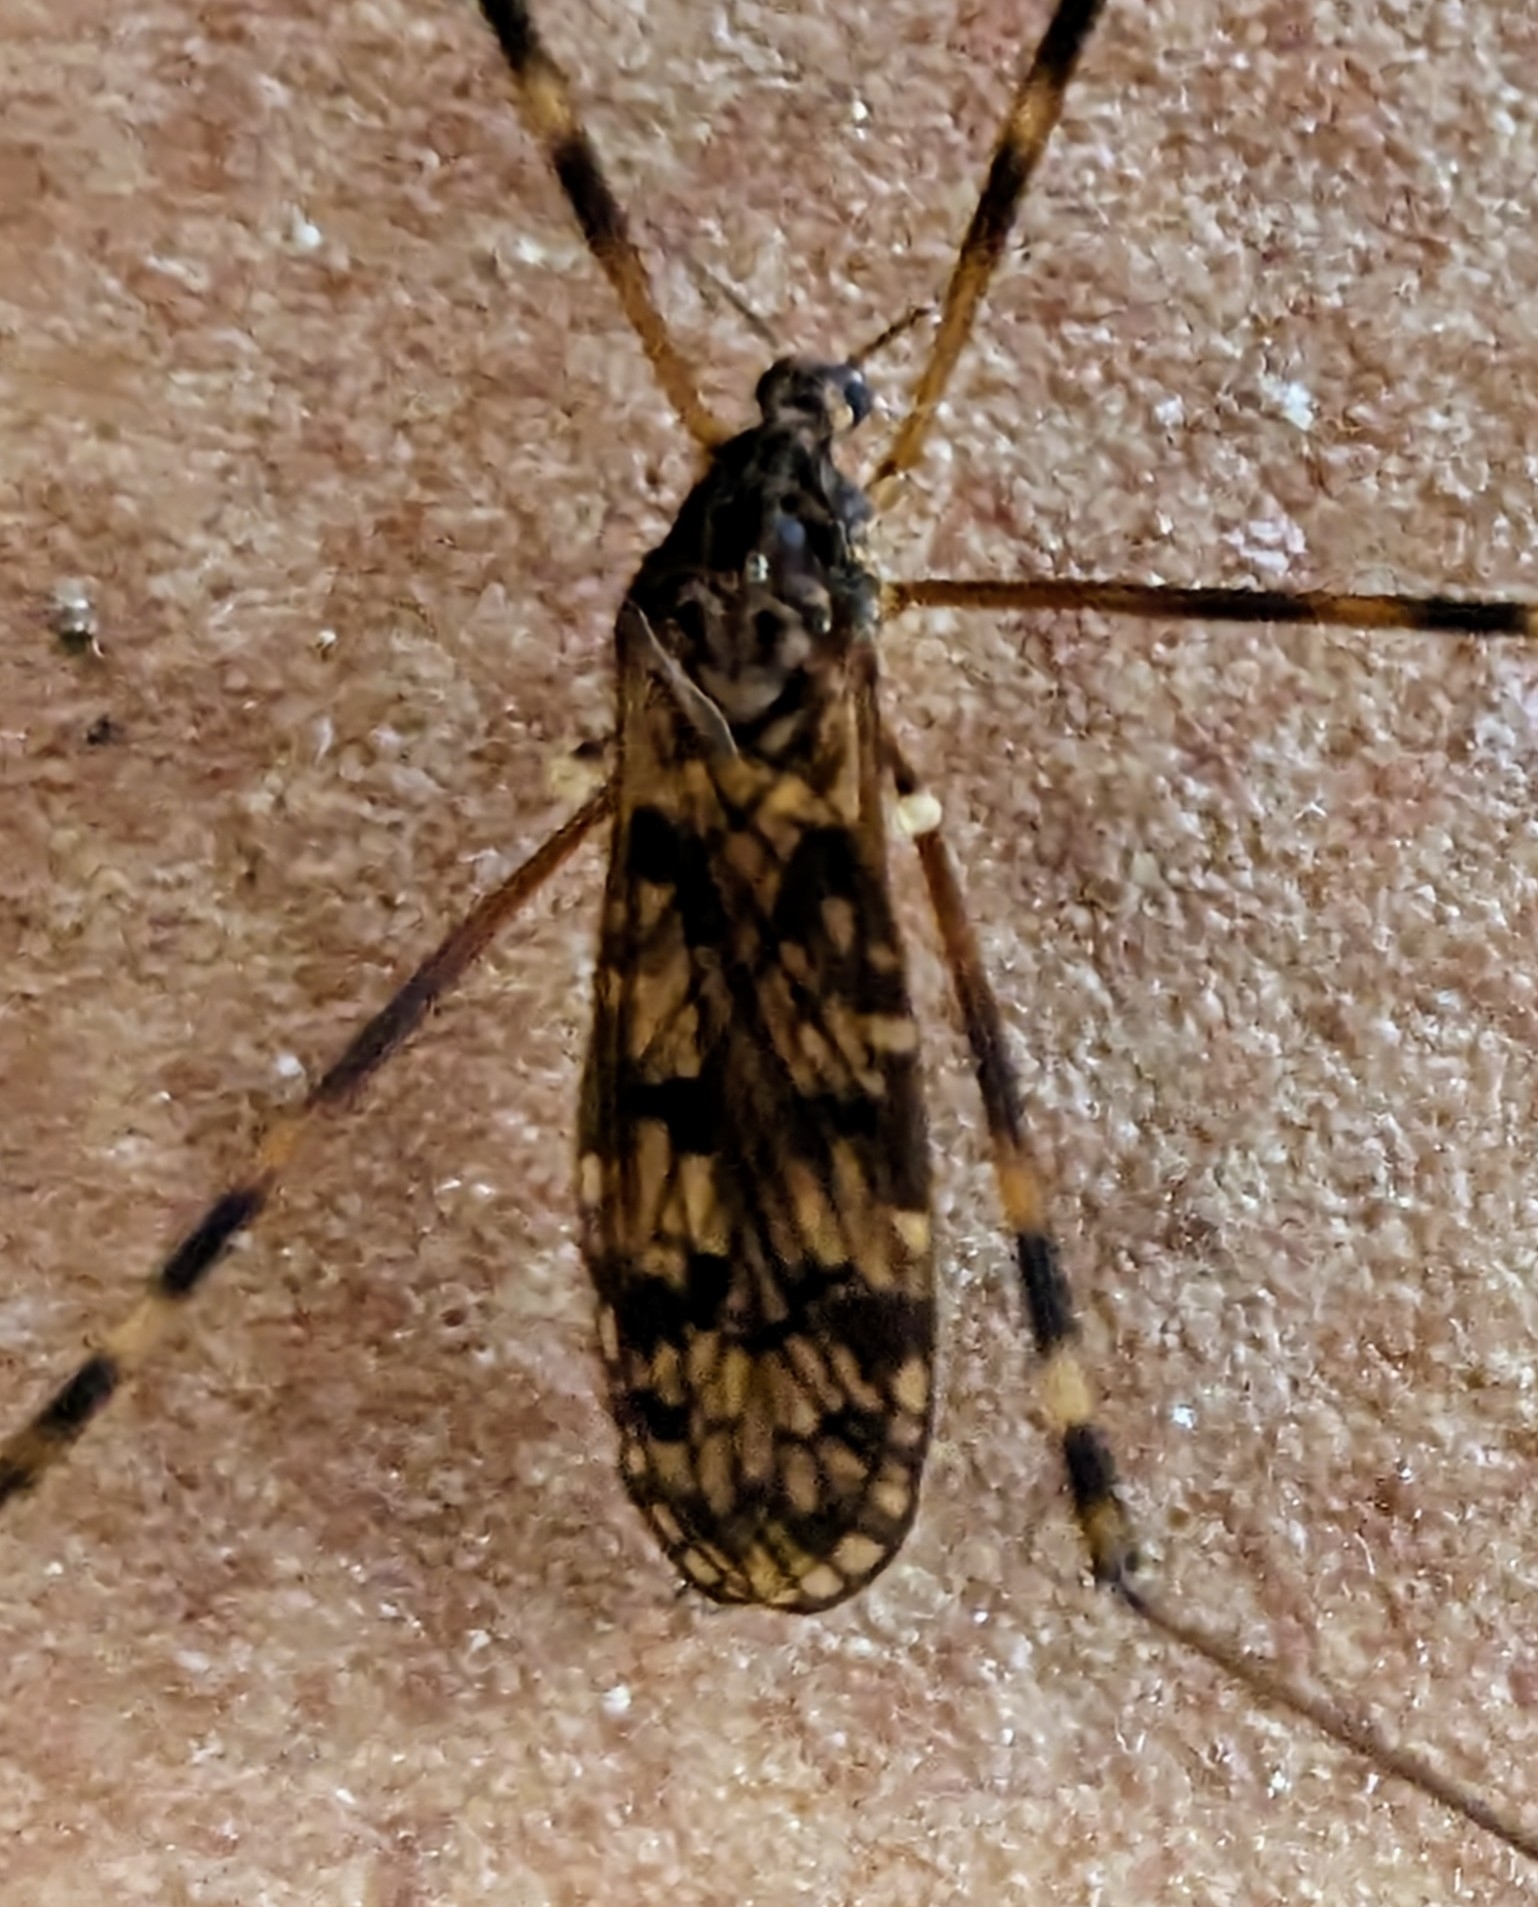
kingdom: Animalia
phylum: Arthropoda
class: Insecta
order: Diptera
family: Limoniidae
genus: Metalimnobia
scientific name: Metalimnobia immatura
